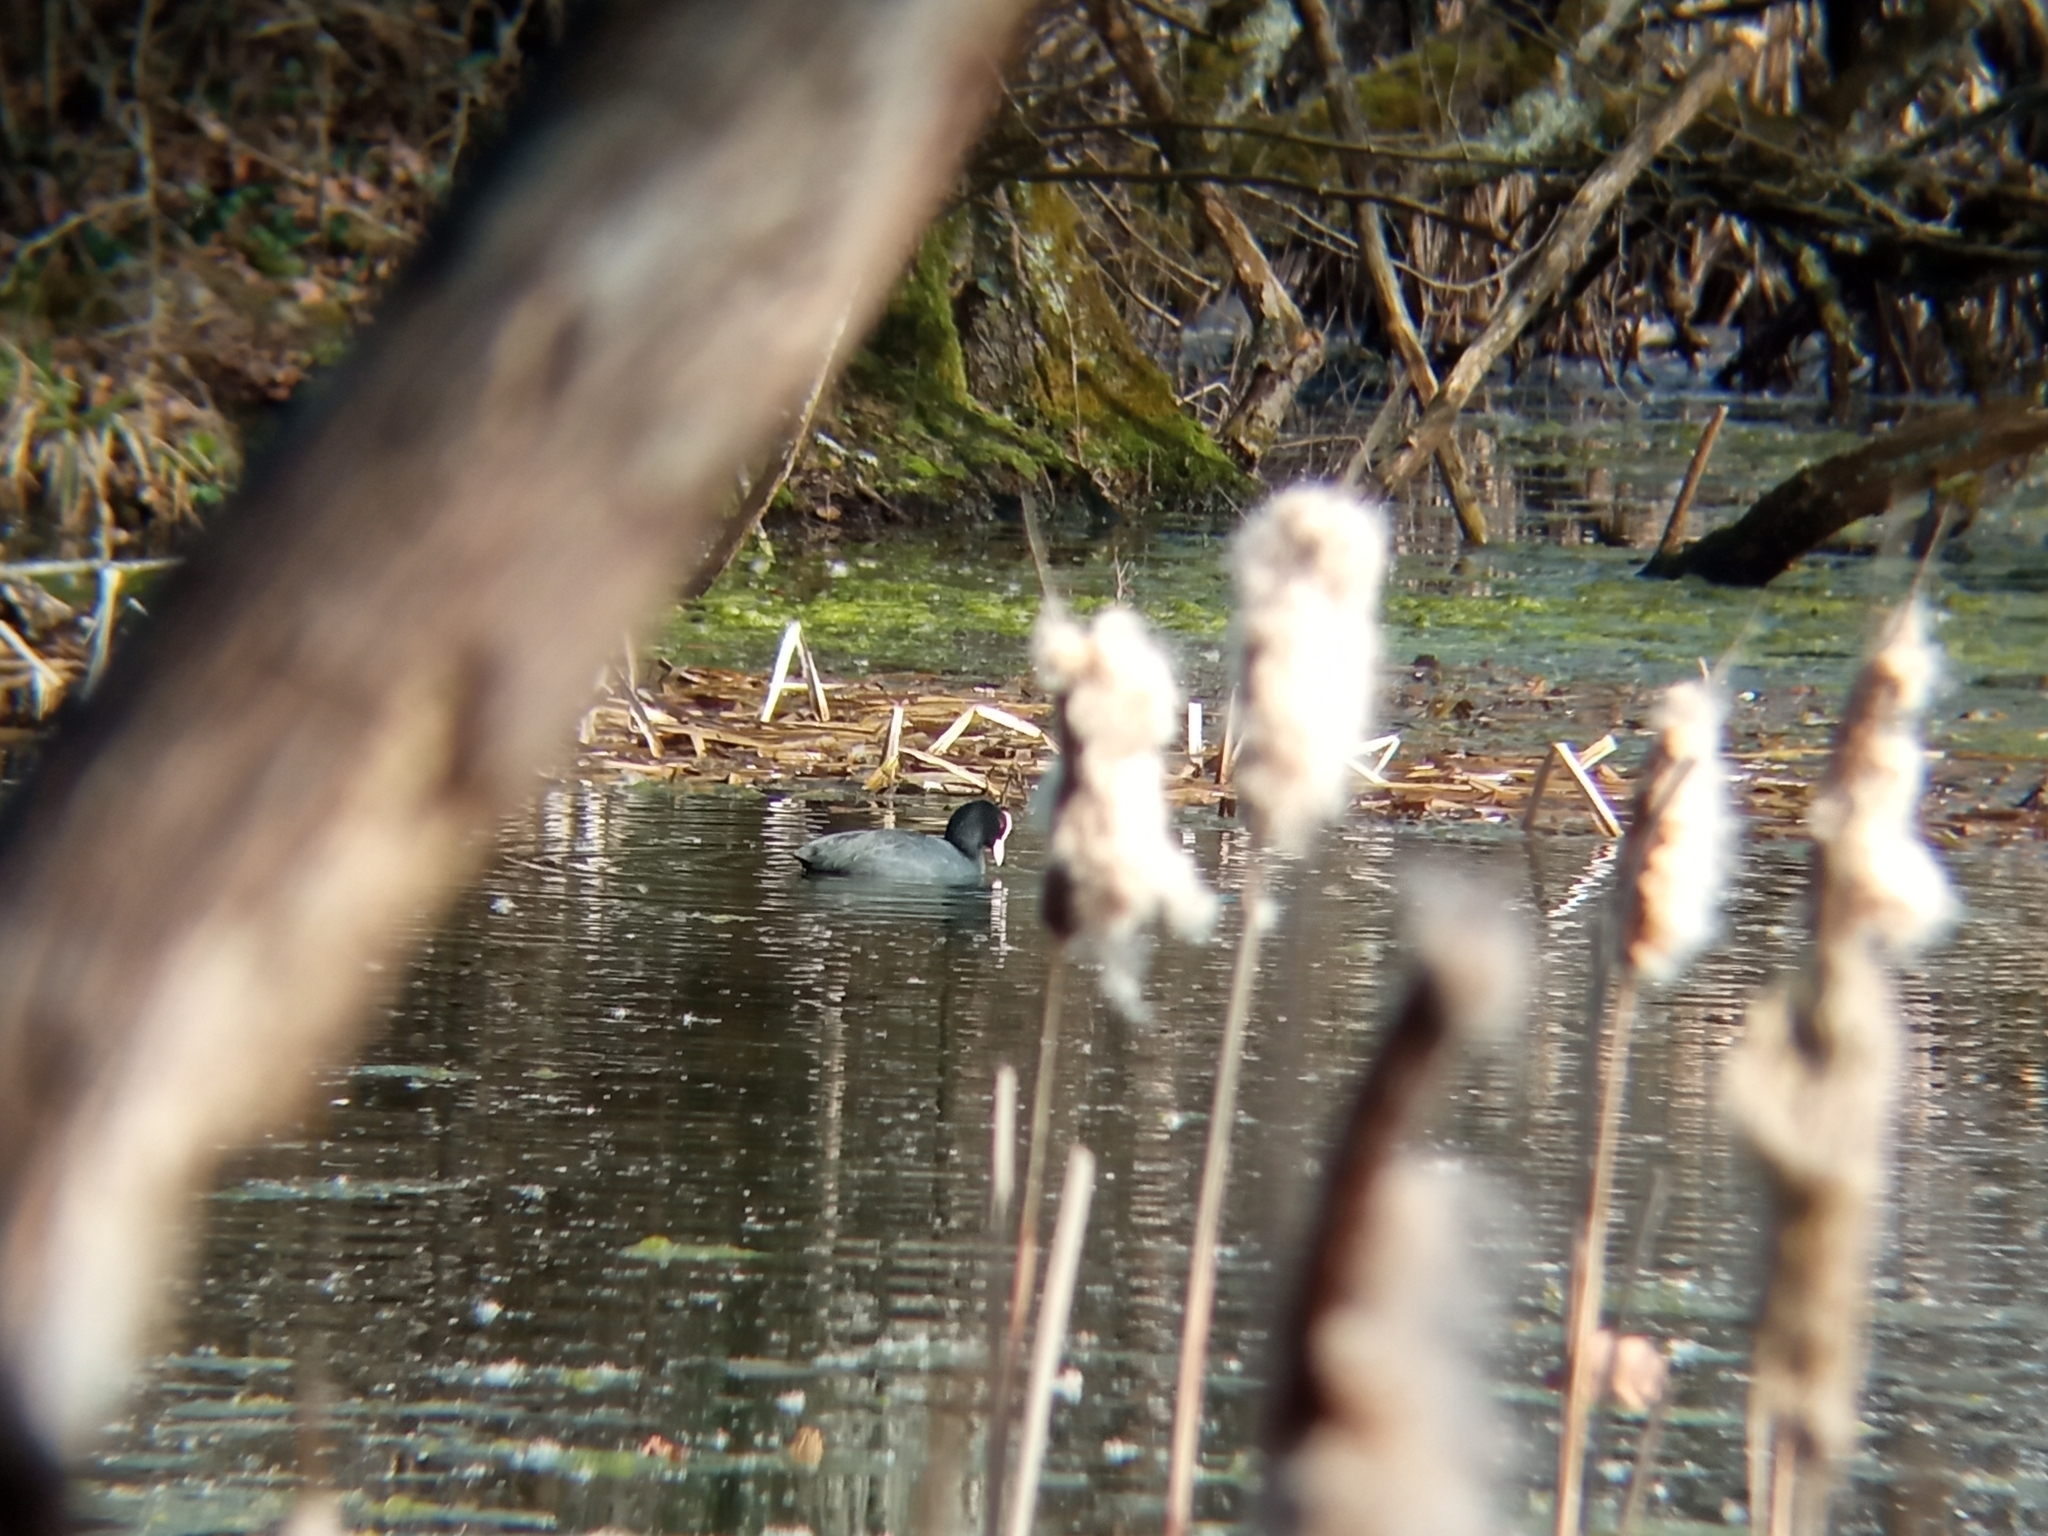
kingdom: Animalia
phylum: Chordata
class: Aves
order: Gruiformes
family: Rallidae
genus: Fulica
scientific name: Fulica atra
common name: Eurasian coot
